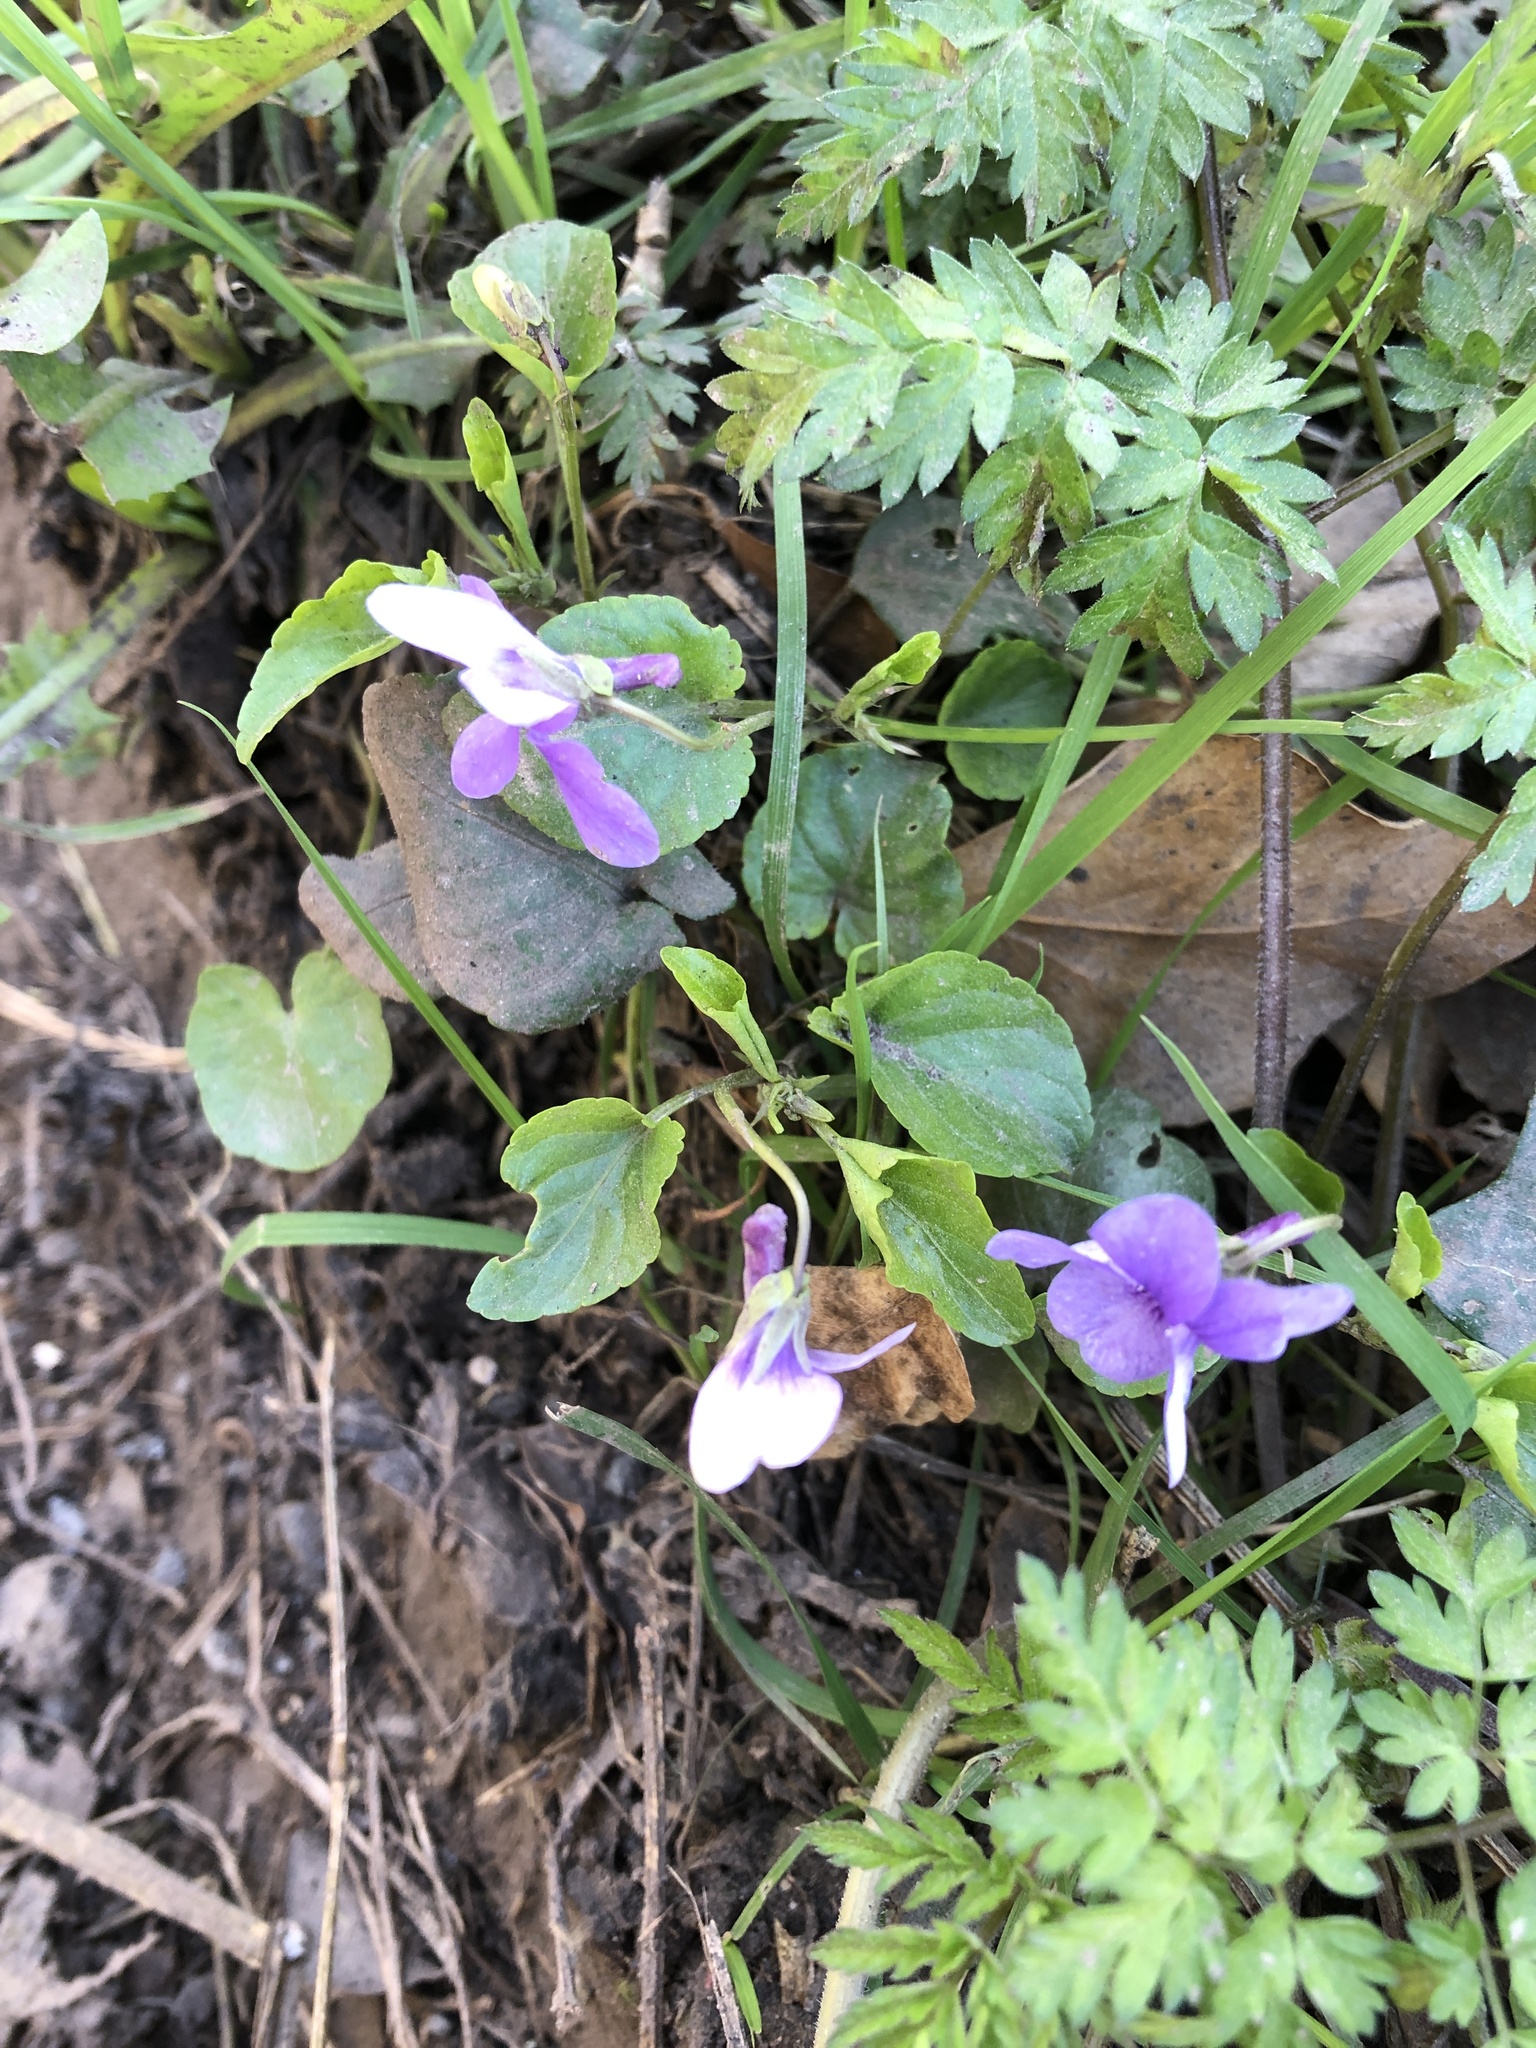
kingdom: Plantae
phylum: Tracheophyta
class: Magnoliopsida
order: Malpighiales
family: Violaceae
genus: Viola
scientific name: Viola
